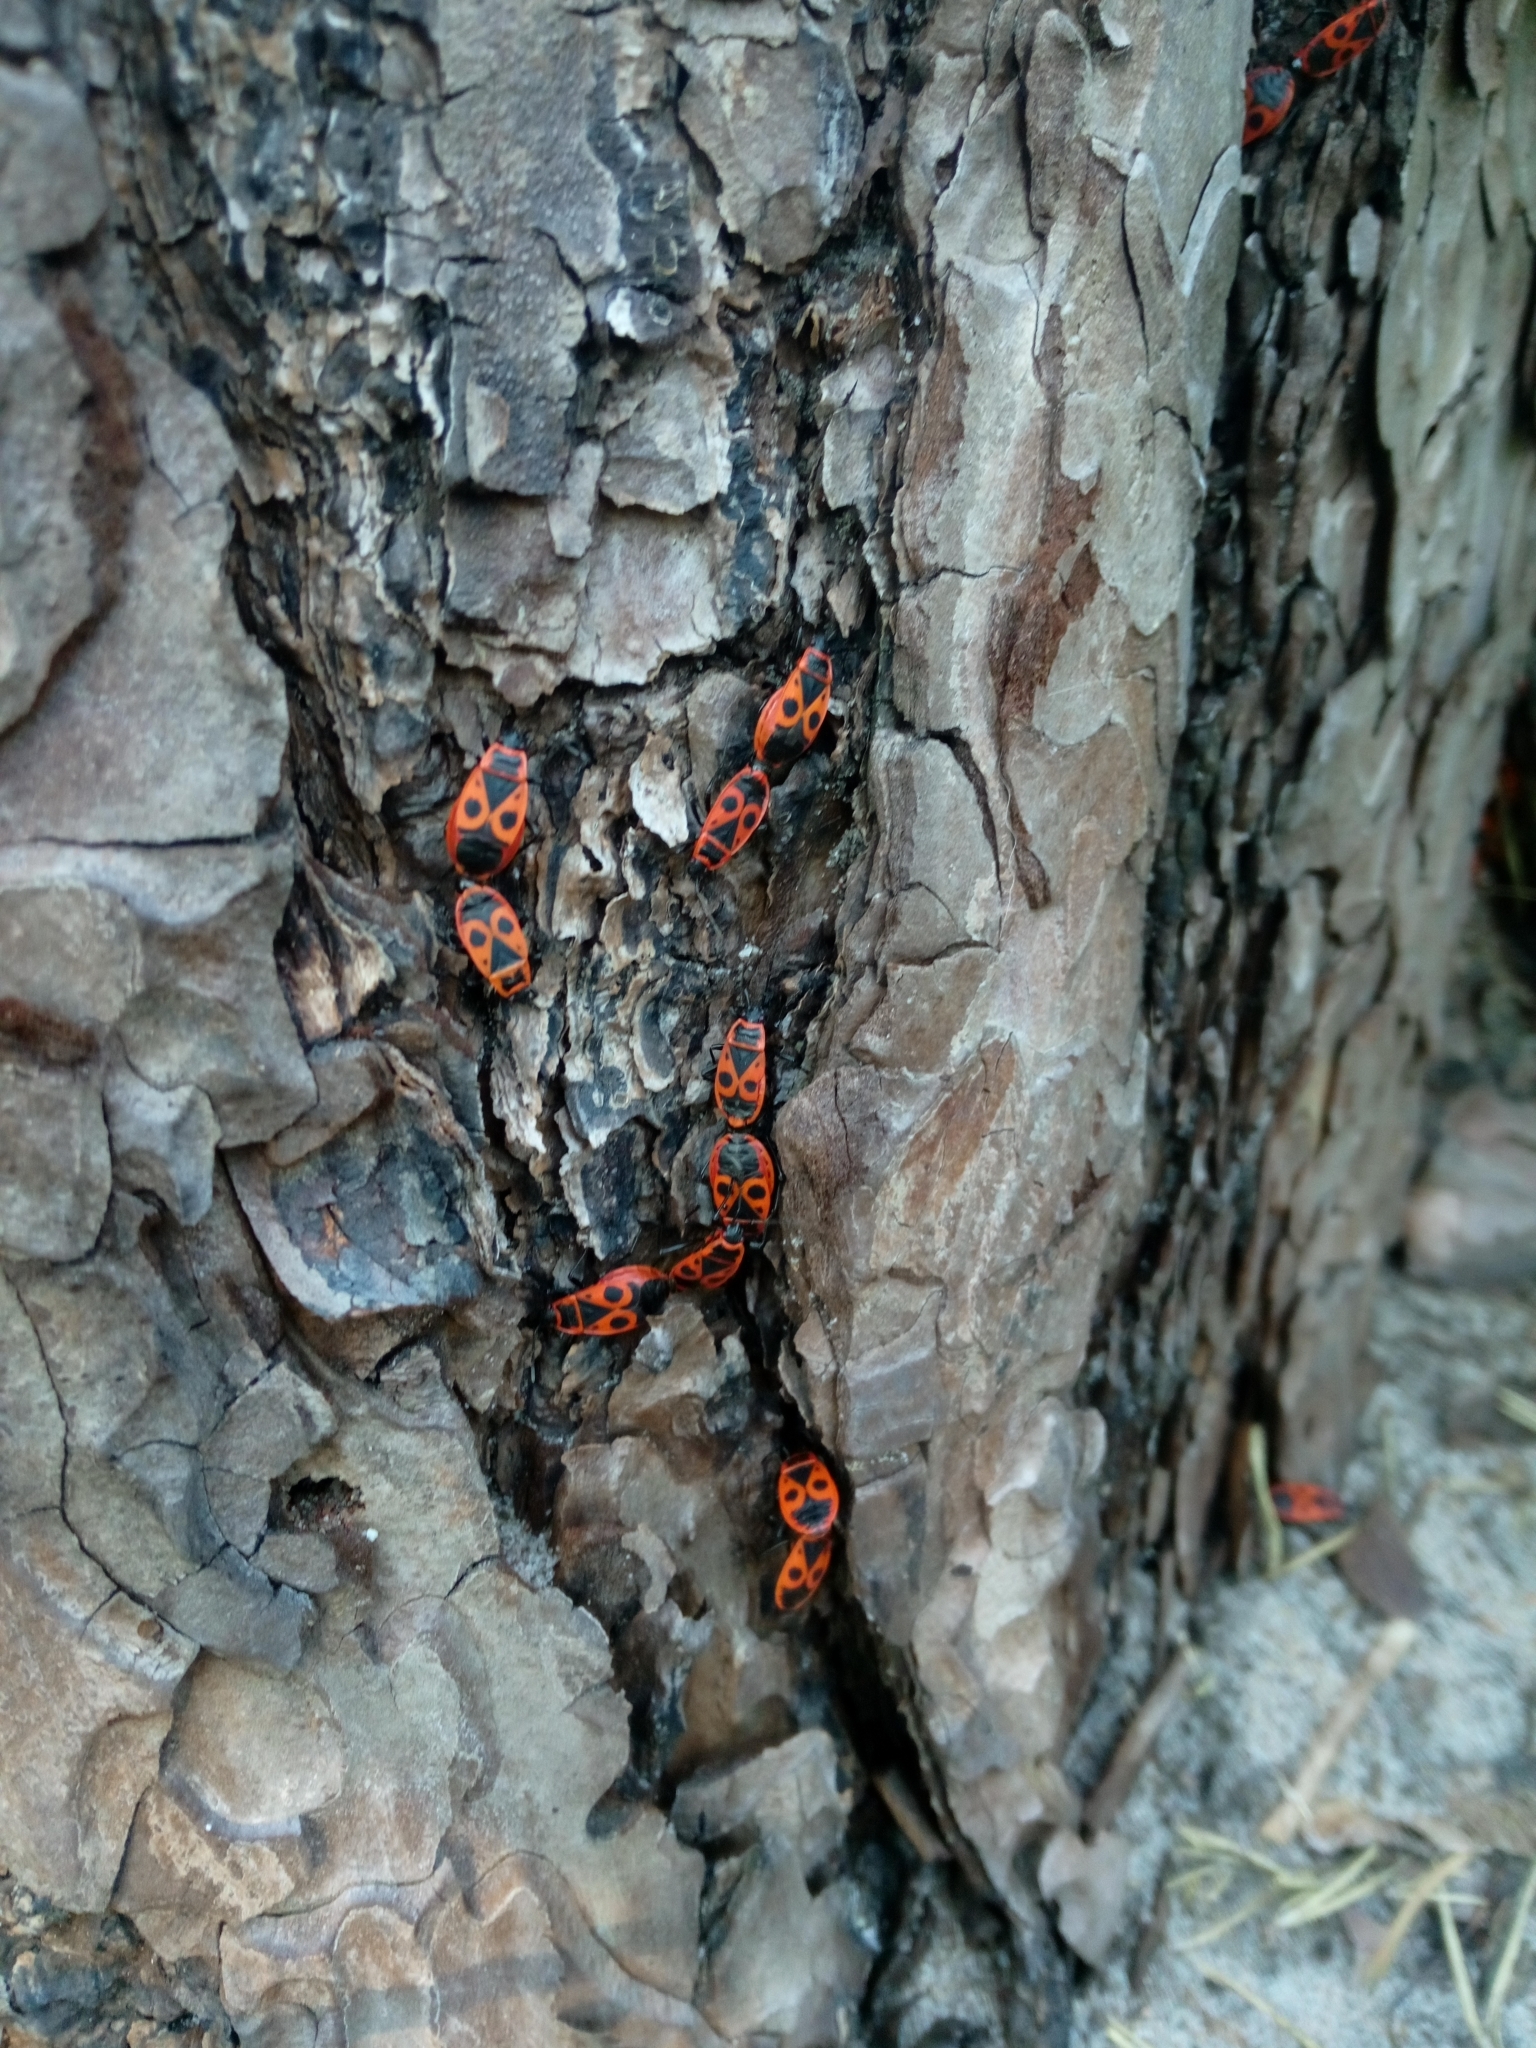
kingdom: Animalia
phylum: Arthropoda
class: Insecta
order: Hemiptera
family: Pyrrhocoridae
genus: Pyrrhocoris
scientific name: Pyrrhocoris apterus
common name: Firebug
